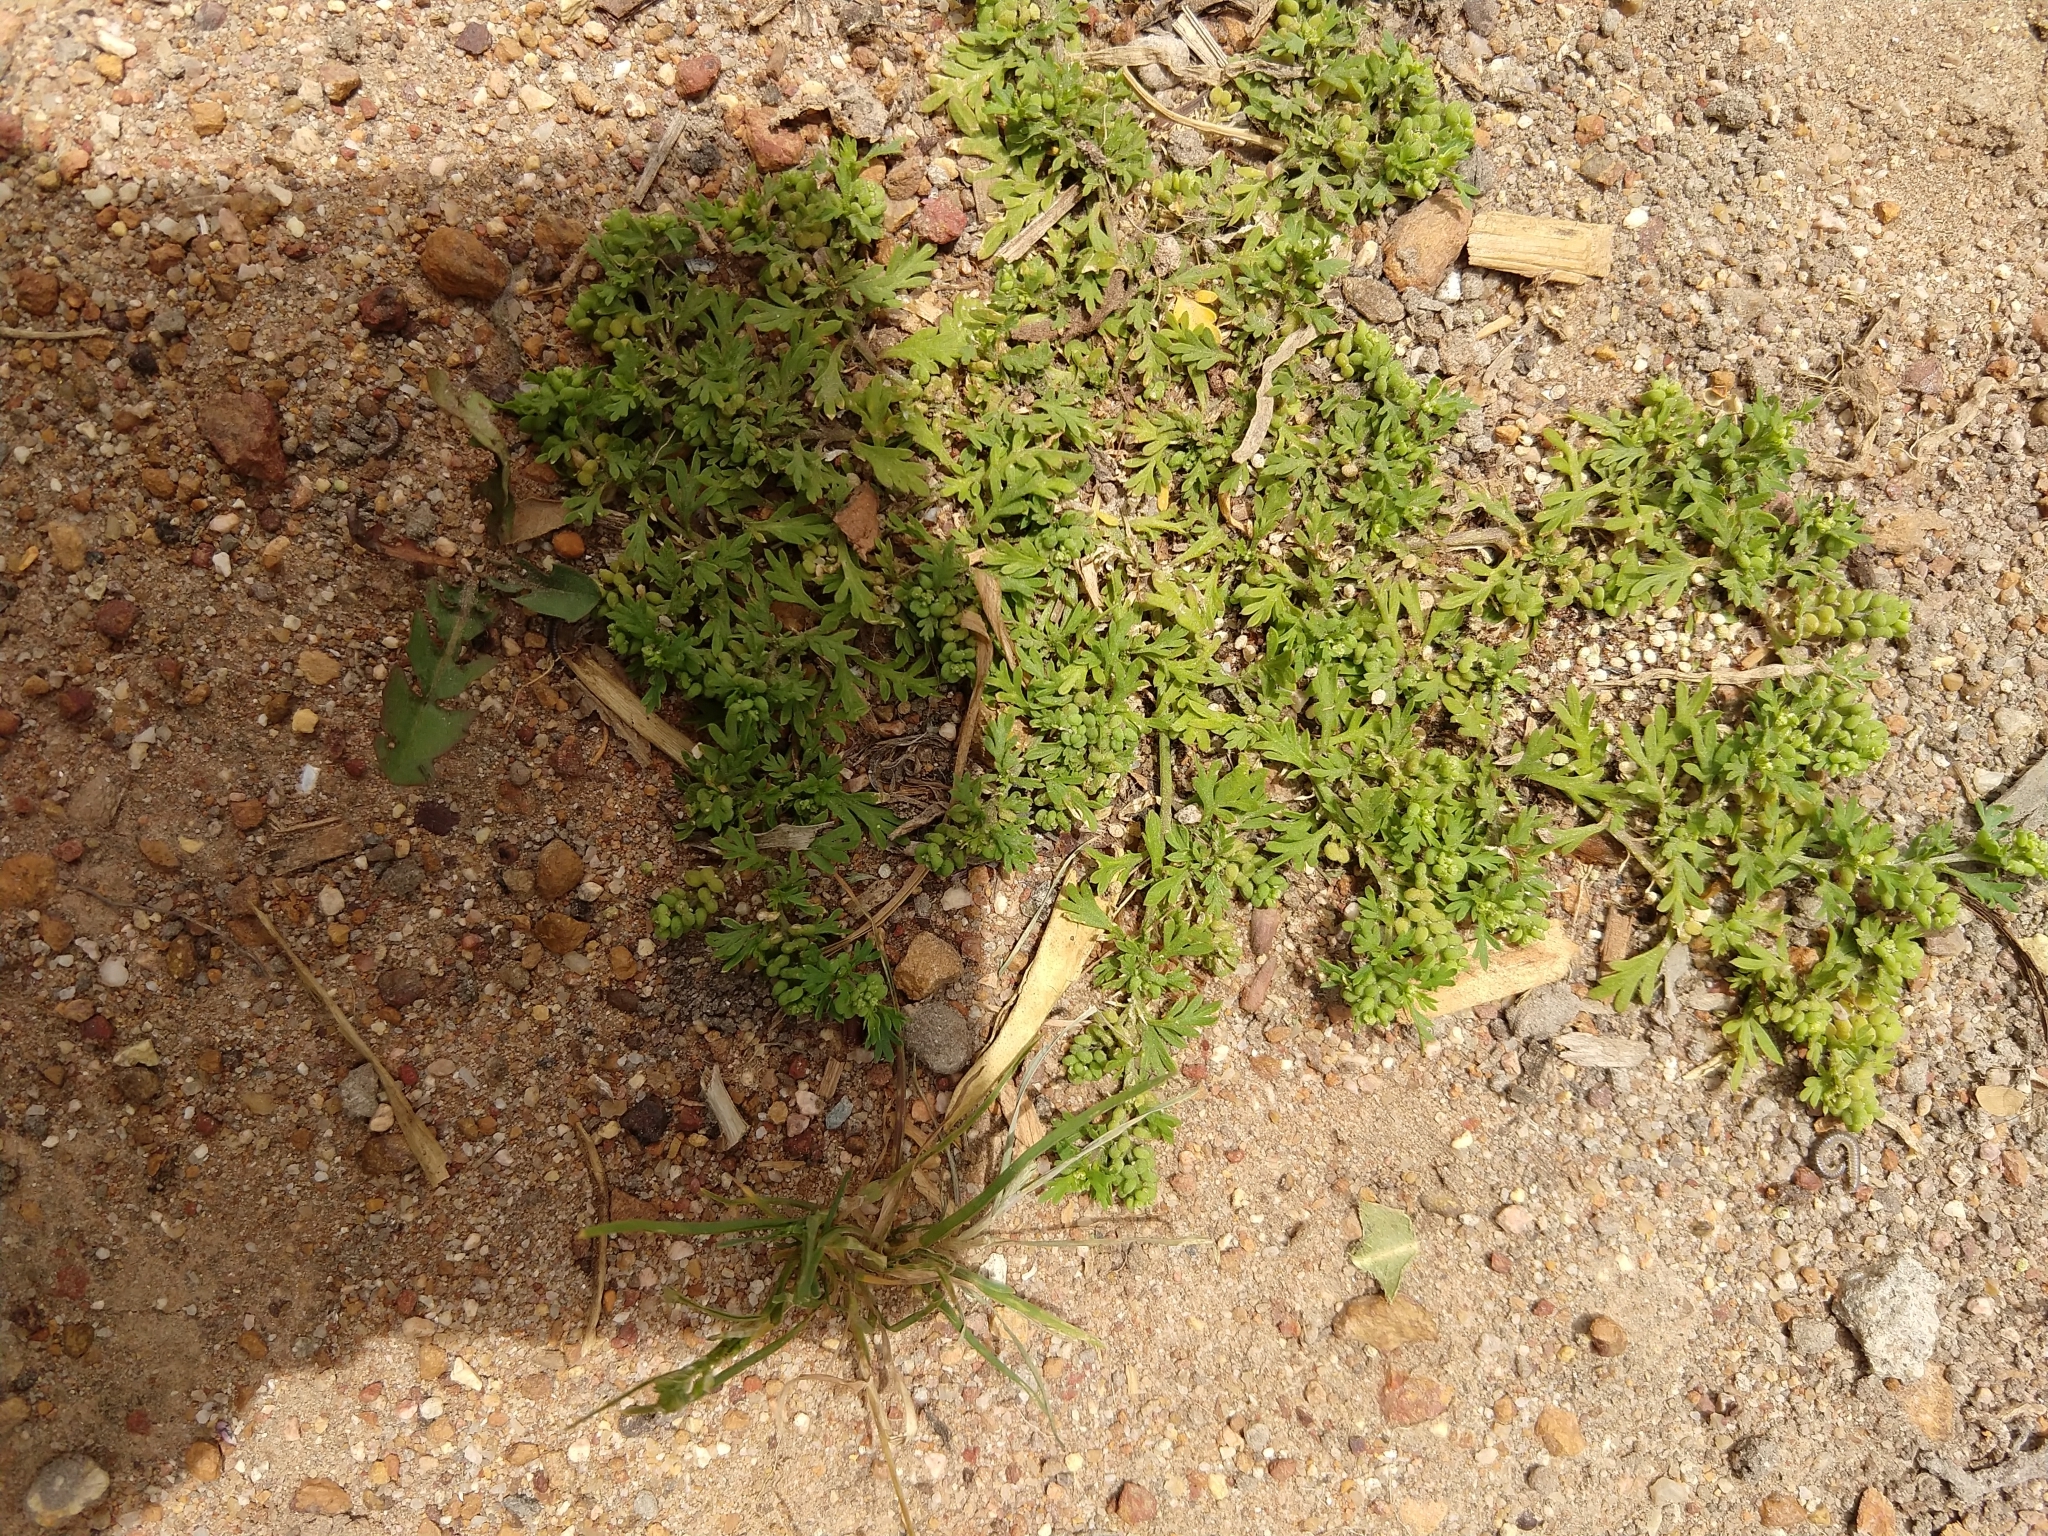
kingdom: Plantae
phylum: Tracheophyta
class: Magnoliopsida
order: Brassicales
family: Brassicaceae
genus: Lepidium
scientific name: Lepidium didymum
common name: Lesser swinecress
